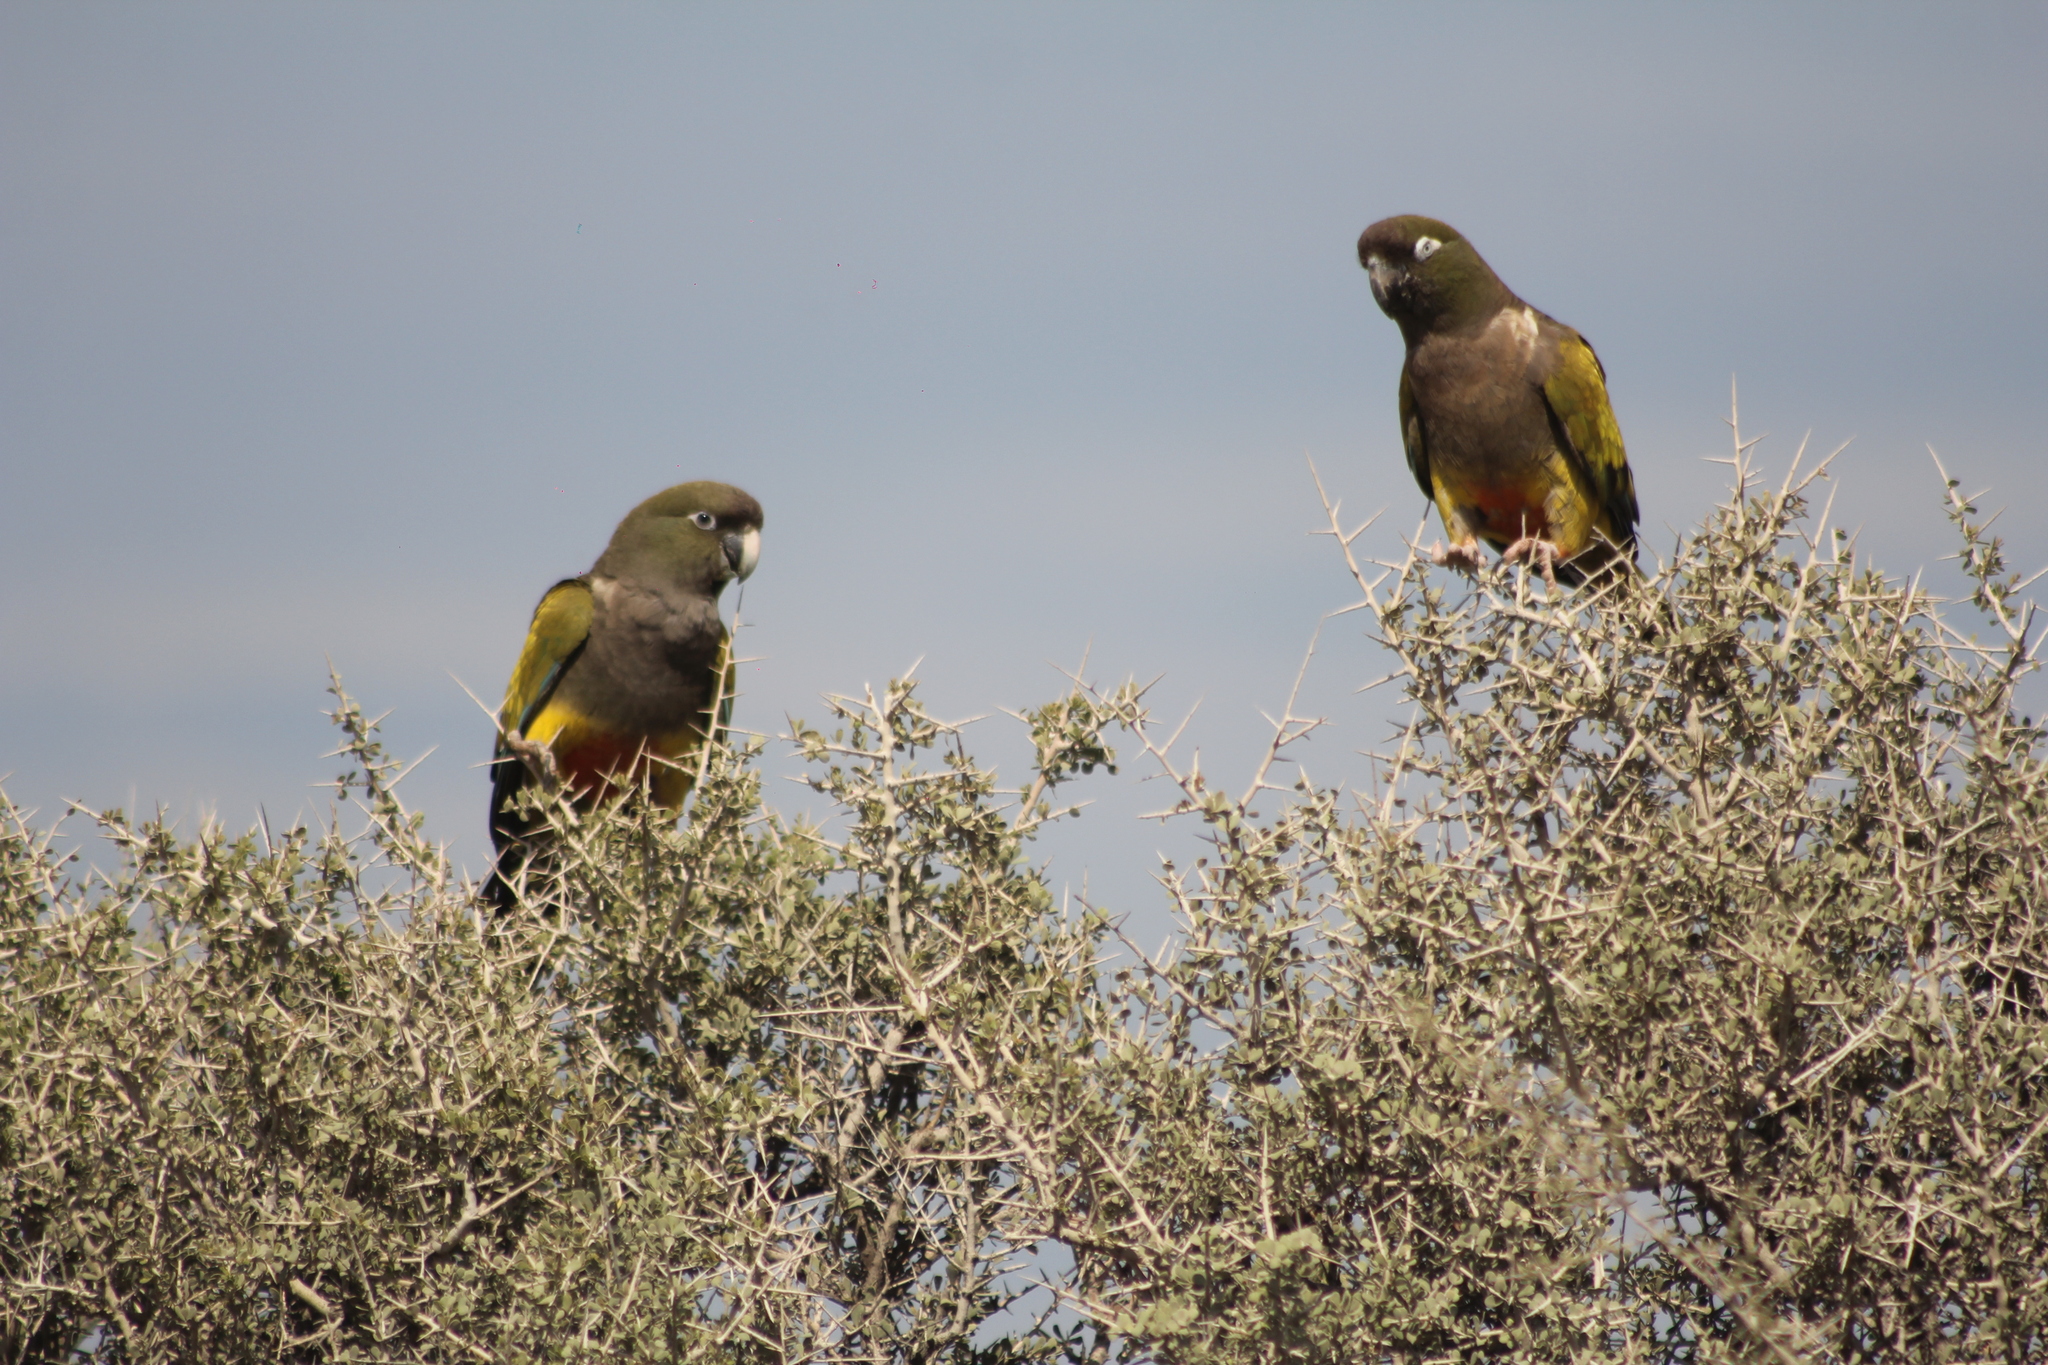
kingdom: Animalia
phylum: Chordata
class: Aves
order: Psittaciformes
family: Psittacidae
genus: Cyanoliseus
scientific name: Cyanoliseus patagonus
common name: Burrowing parrot
